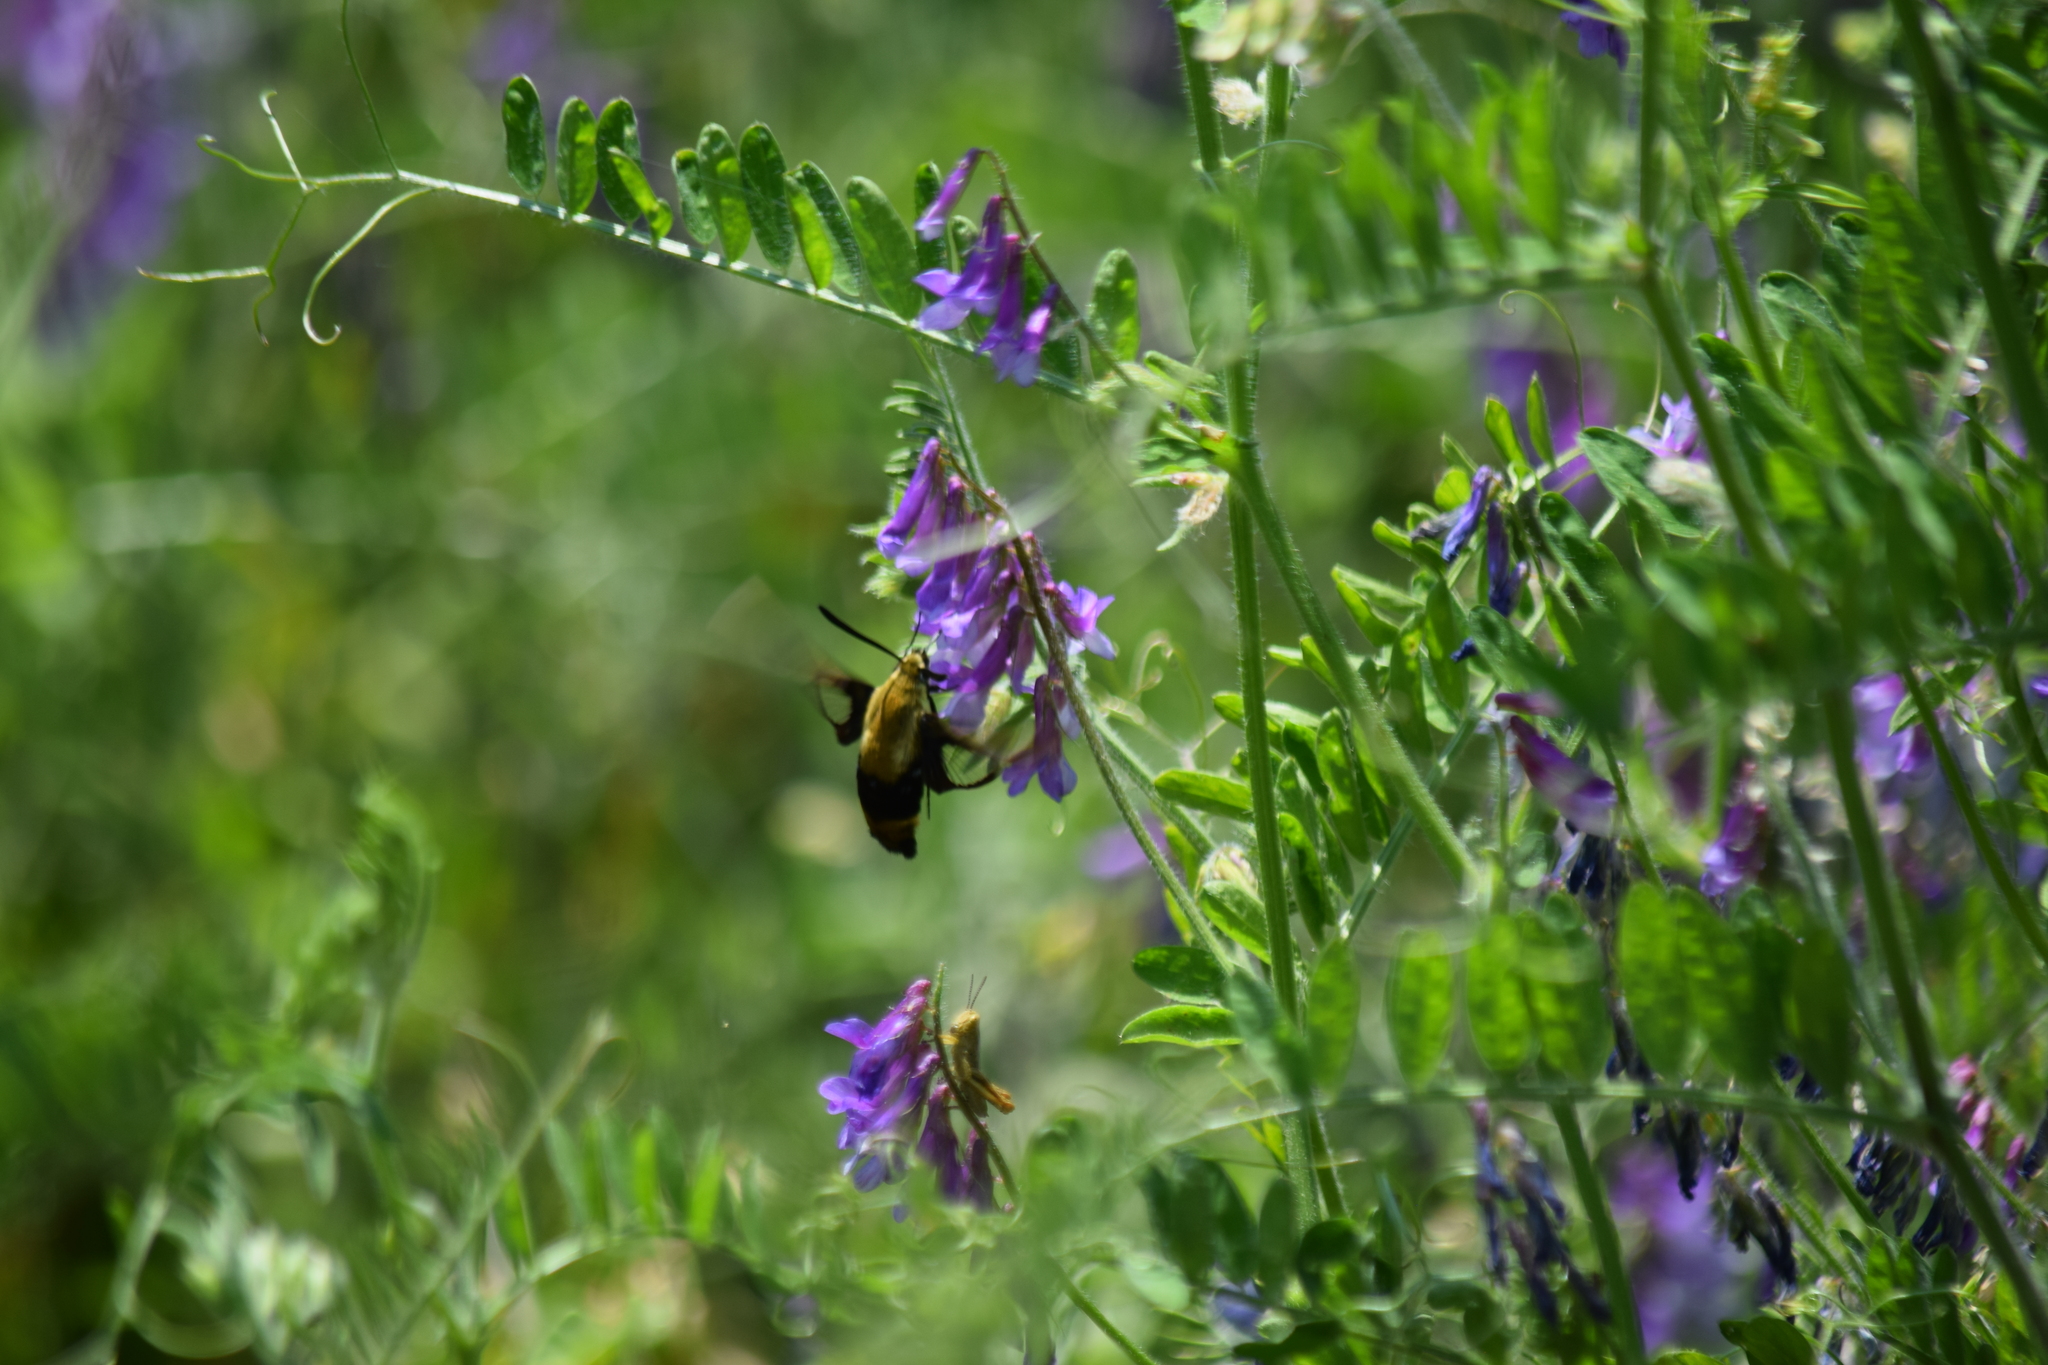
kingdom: Animalia
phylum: Arthropoda
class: Insecta
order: Lepidoptera
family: Sphingidae
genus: Hemaris
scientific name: Hemaris diffinis
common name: Bumblebee moth
